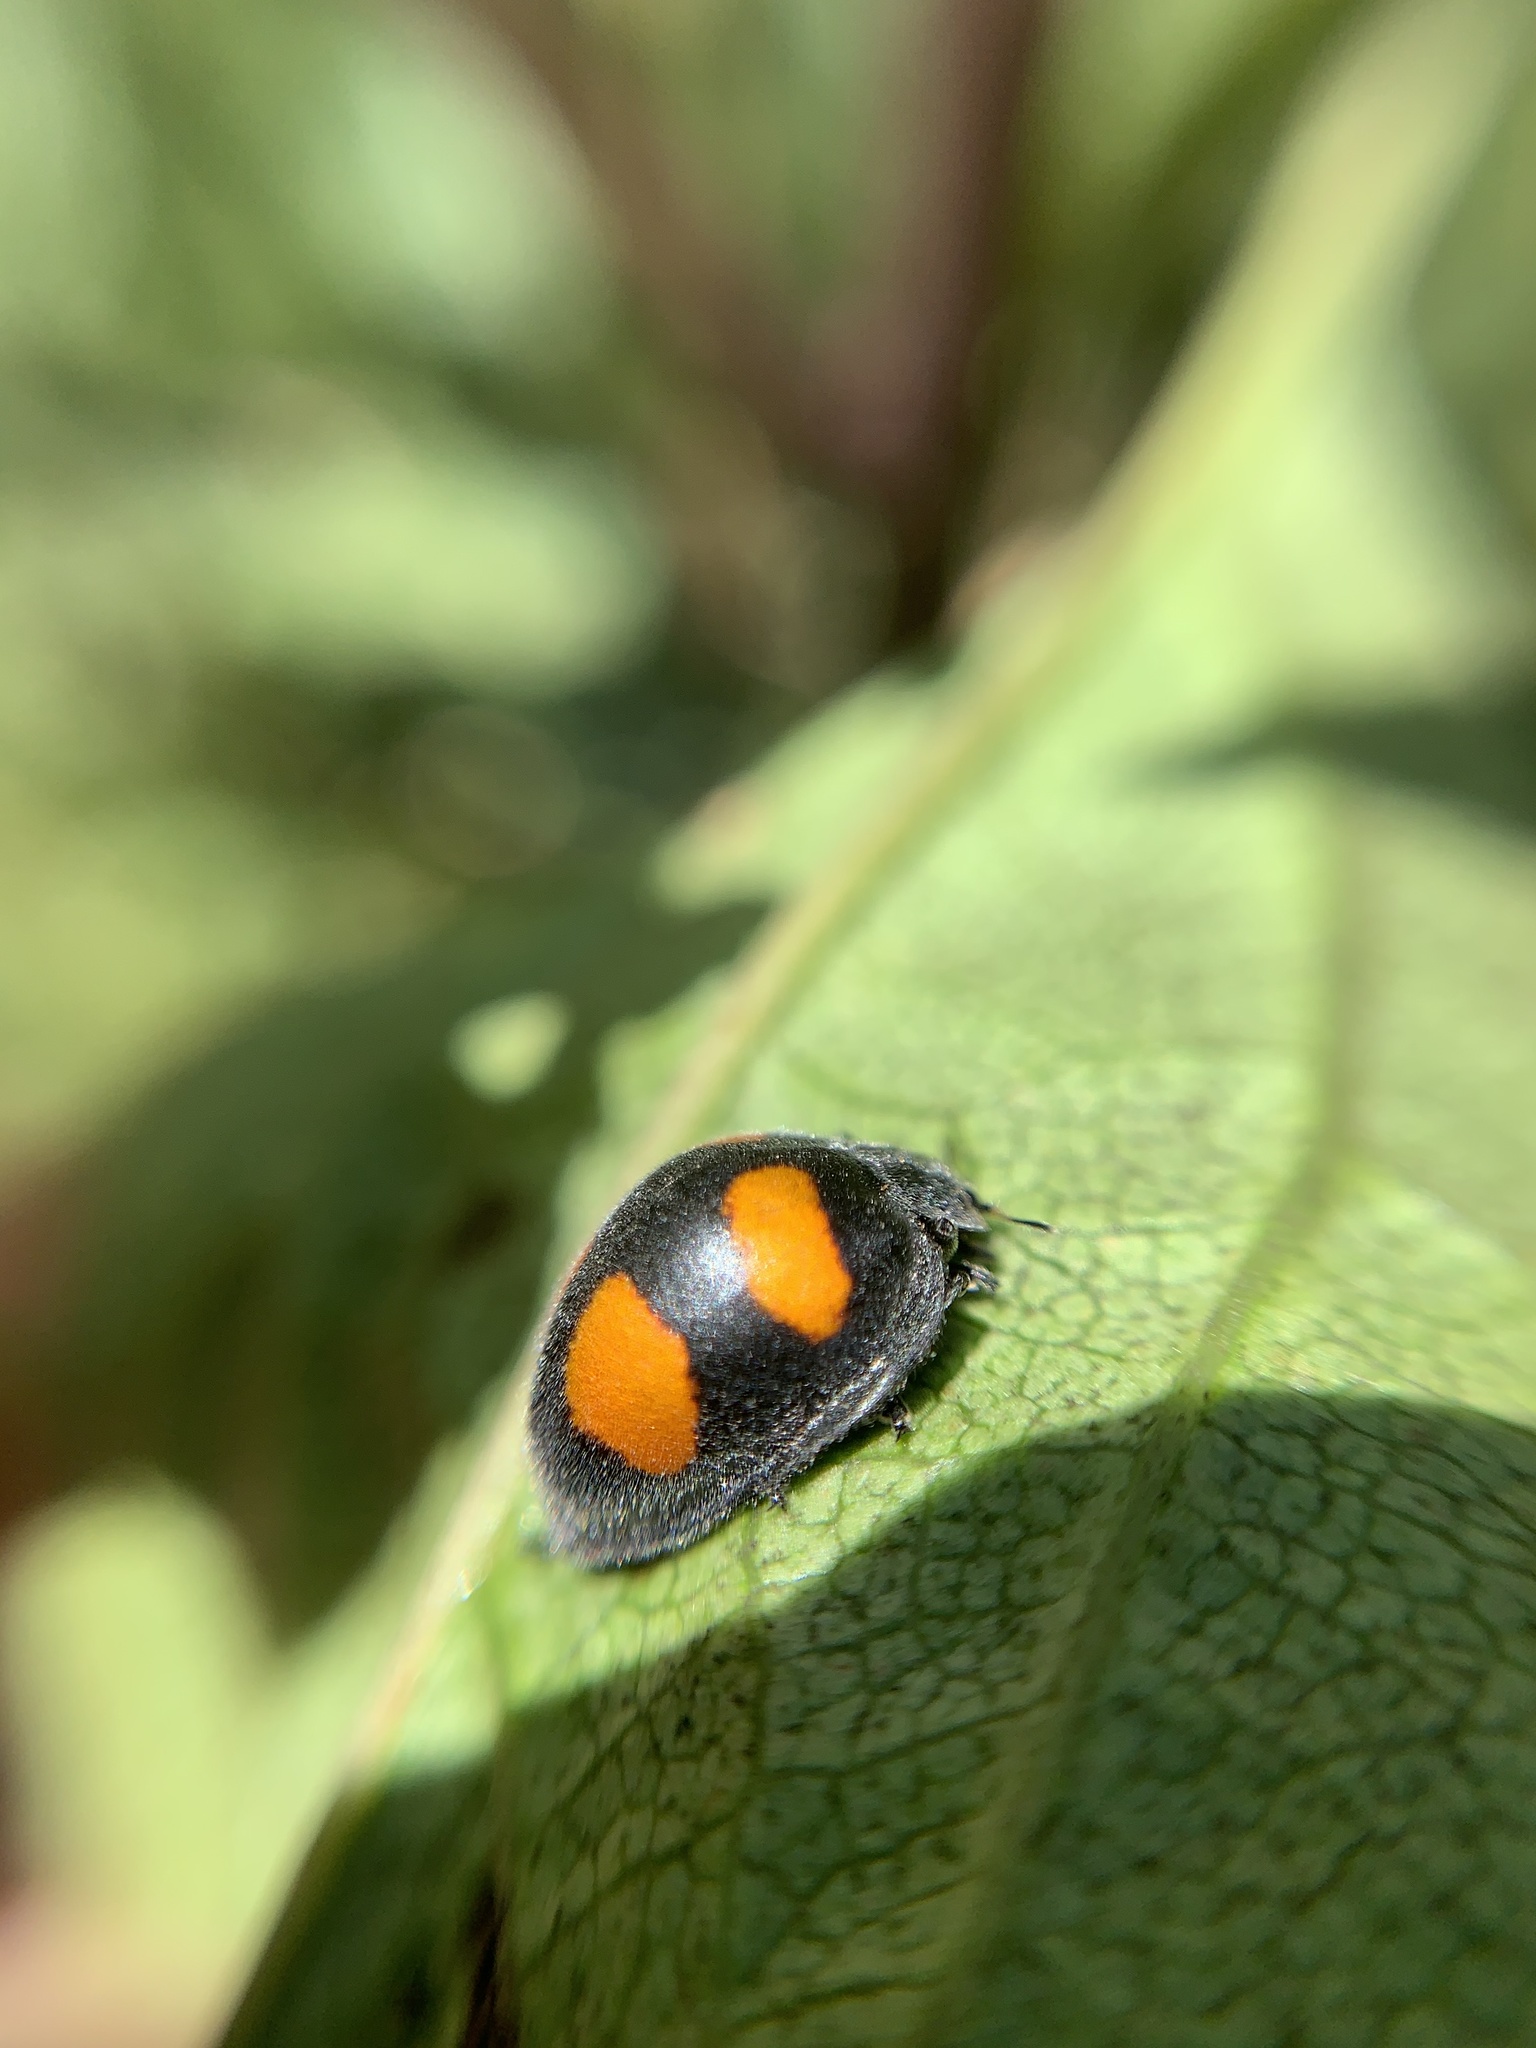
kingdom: Animalia
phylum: Arthropoda
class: Insecta
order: Coleoptera
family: Coccinellidae
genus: Toxotoma
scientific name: Toxotoma flavofasciata
